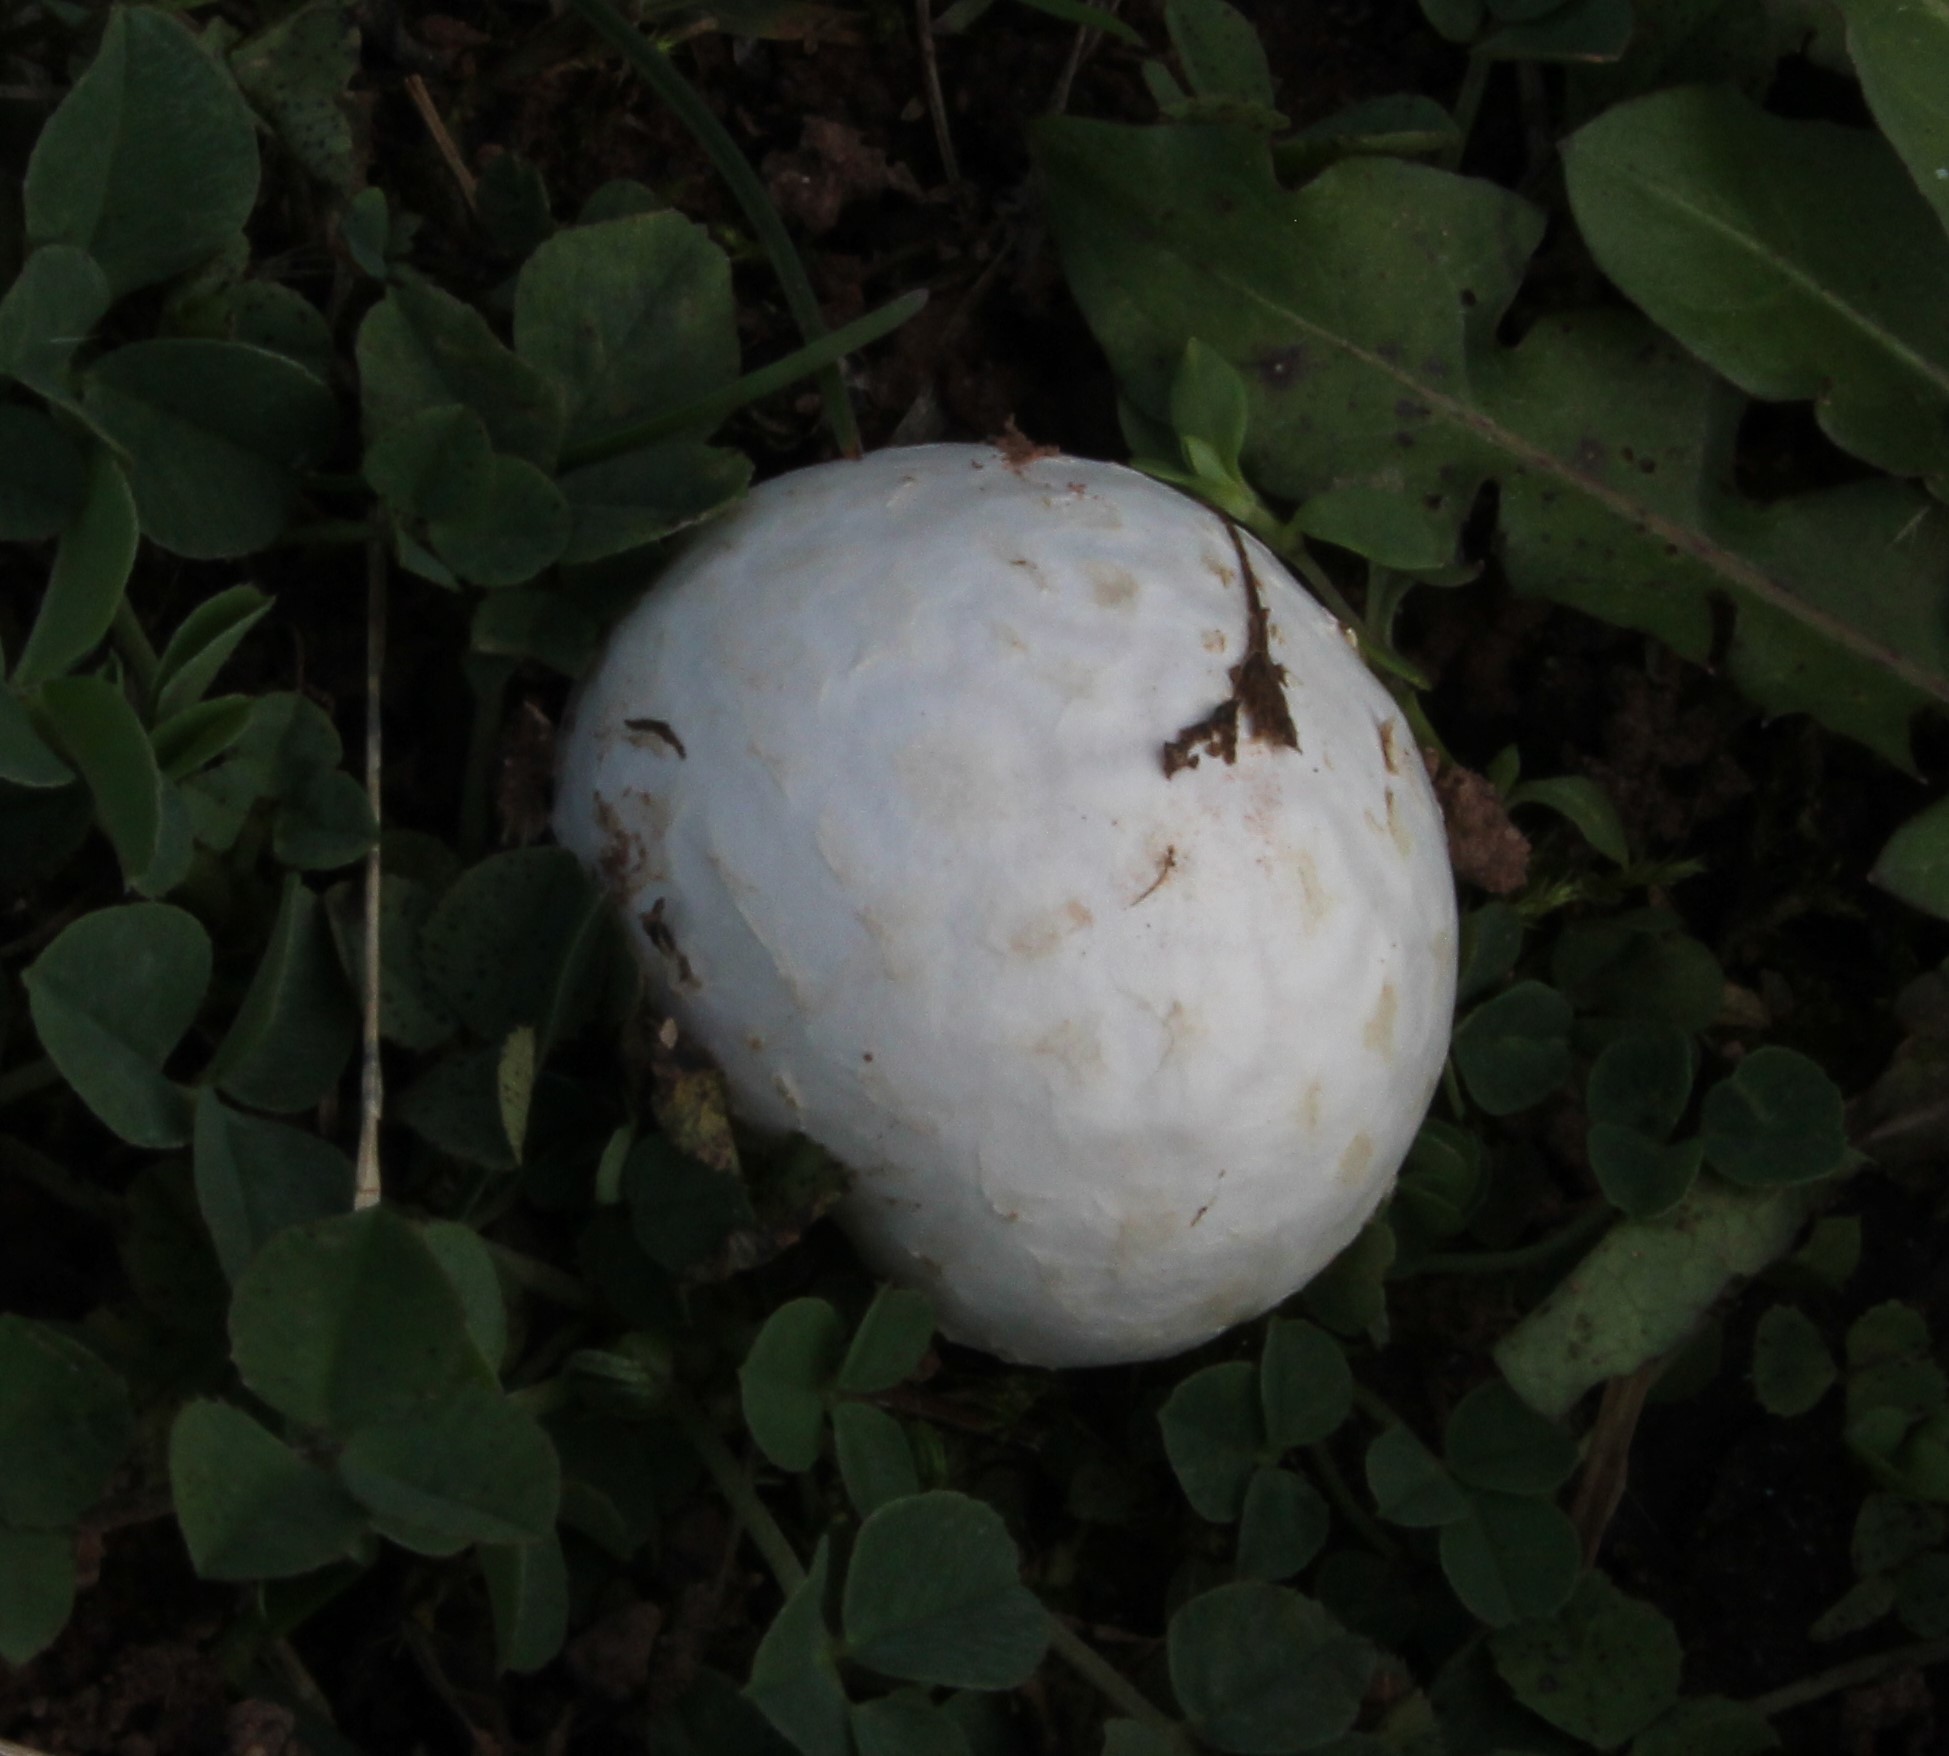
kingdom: Fungi
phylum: Basidiomycota
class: Agaricomycetes
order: Agaricales
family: Lycoperdaceae
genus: Bovista
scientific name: Bovista plumbea
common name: Grey puffball
